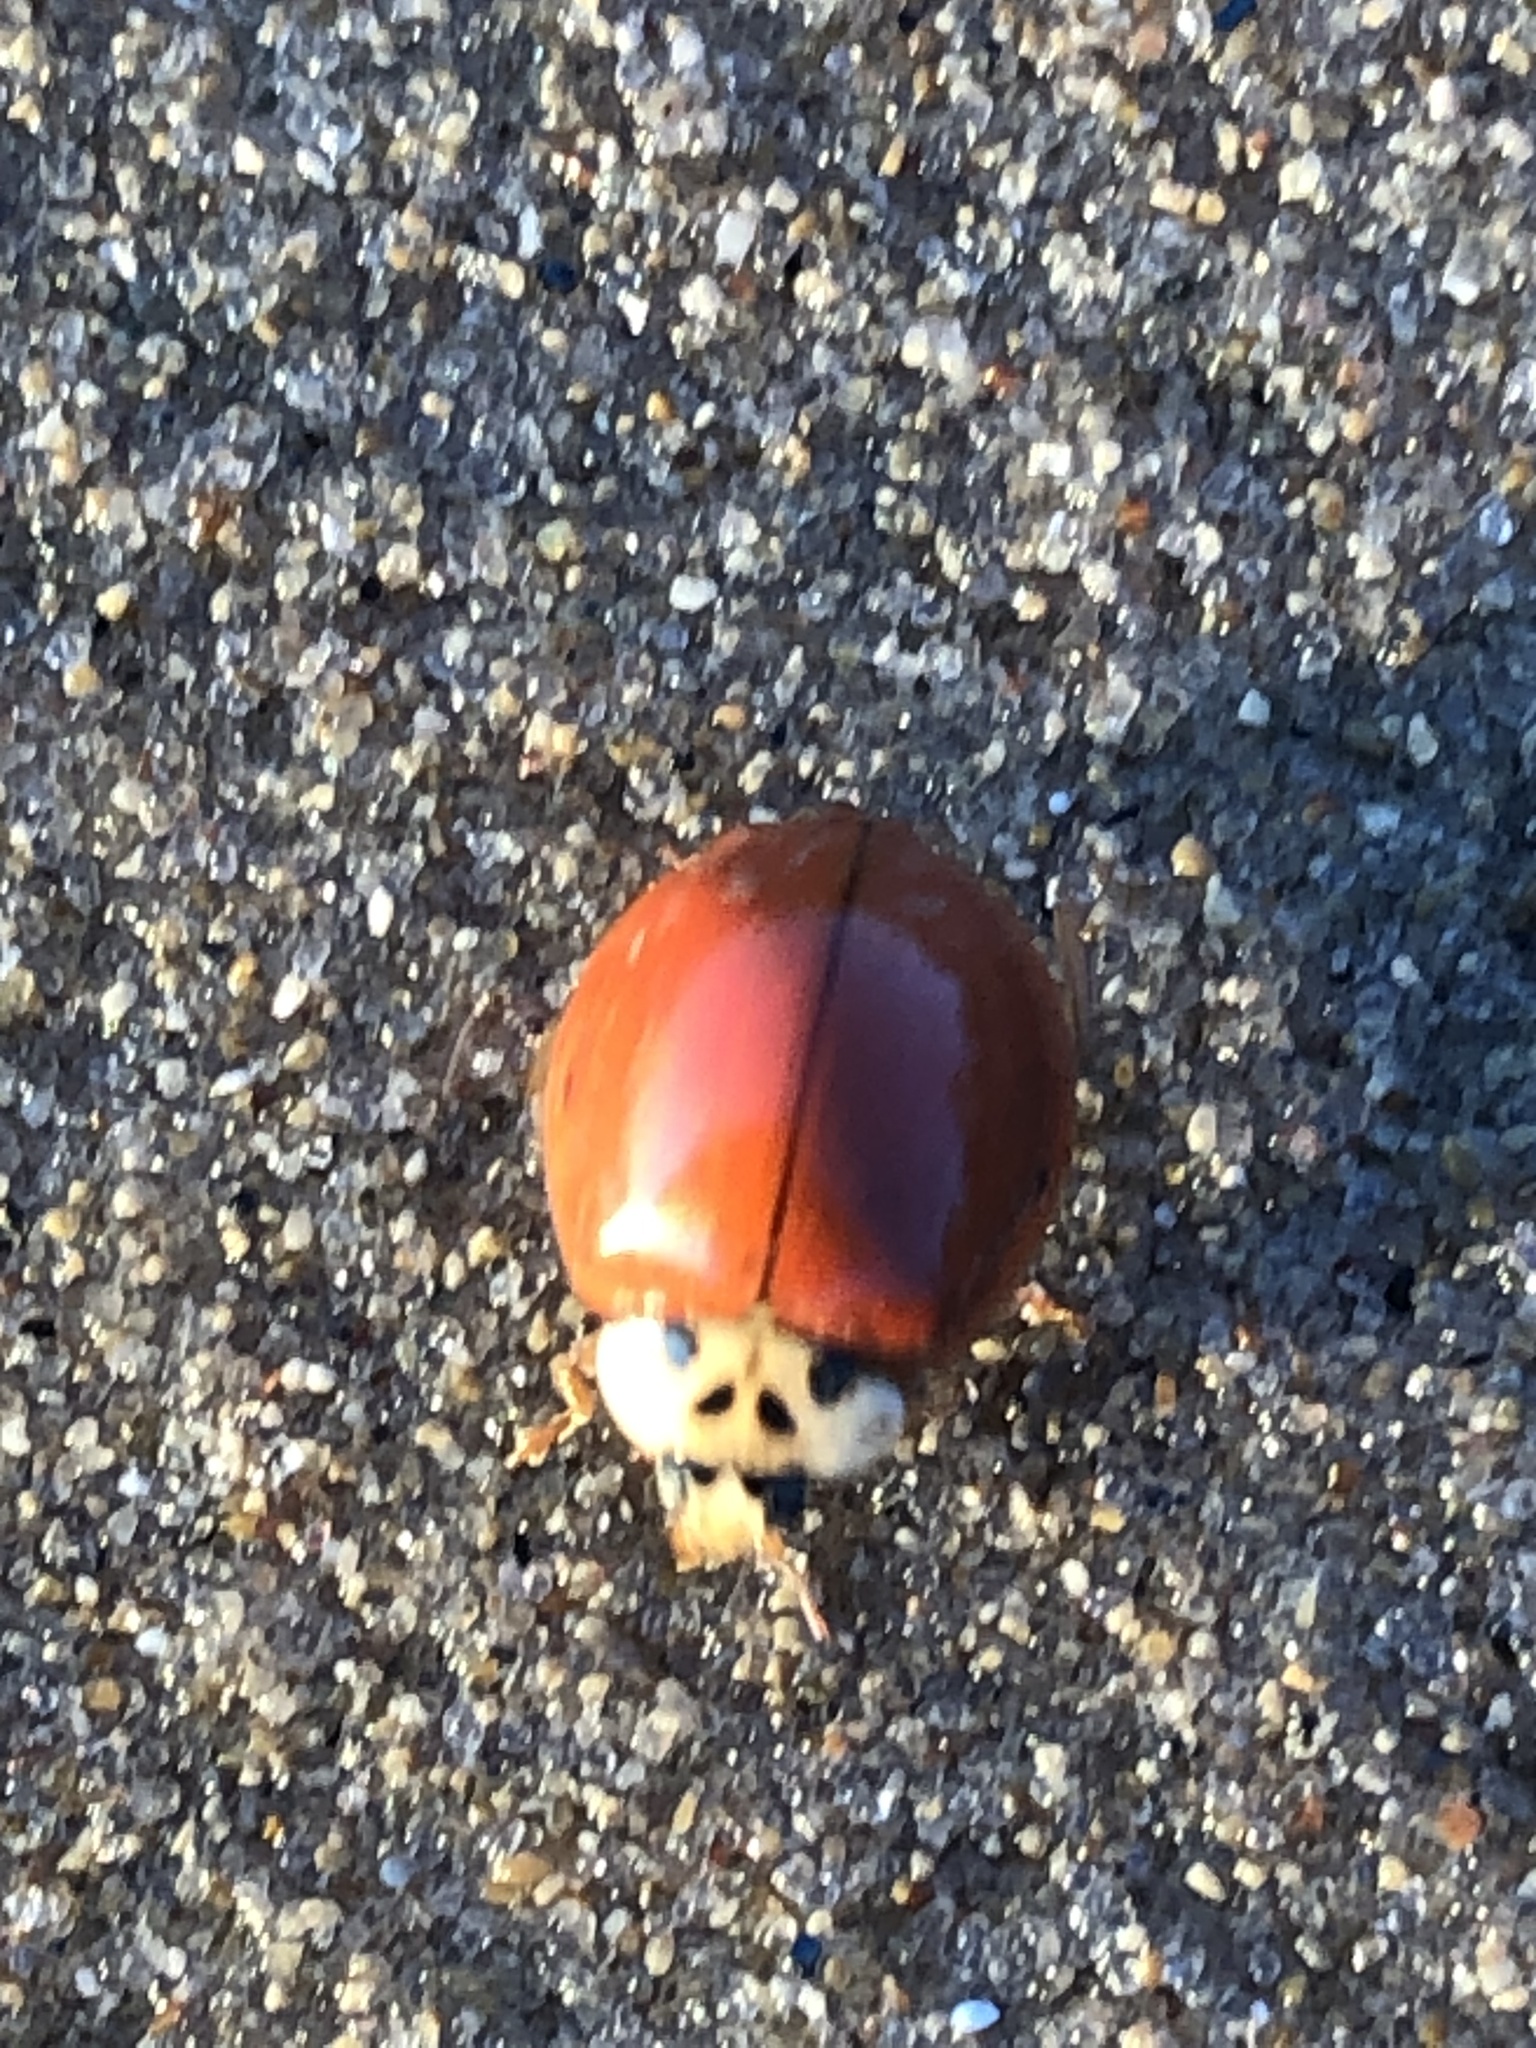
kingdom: Animalia
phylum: Arthropoda
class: Insecta
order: Coleoptera
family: Coccinellidae
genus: Harmonia
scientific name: Harmonia axyridis
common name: Harlequin ladybird
